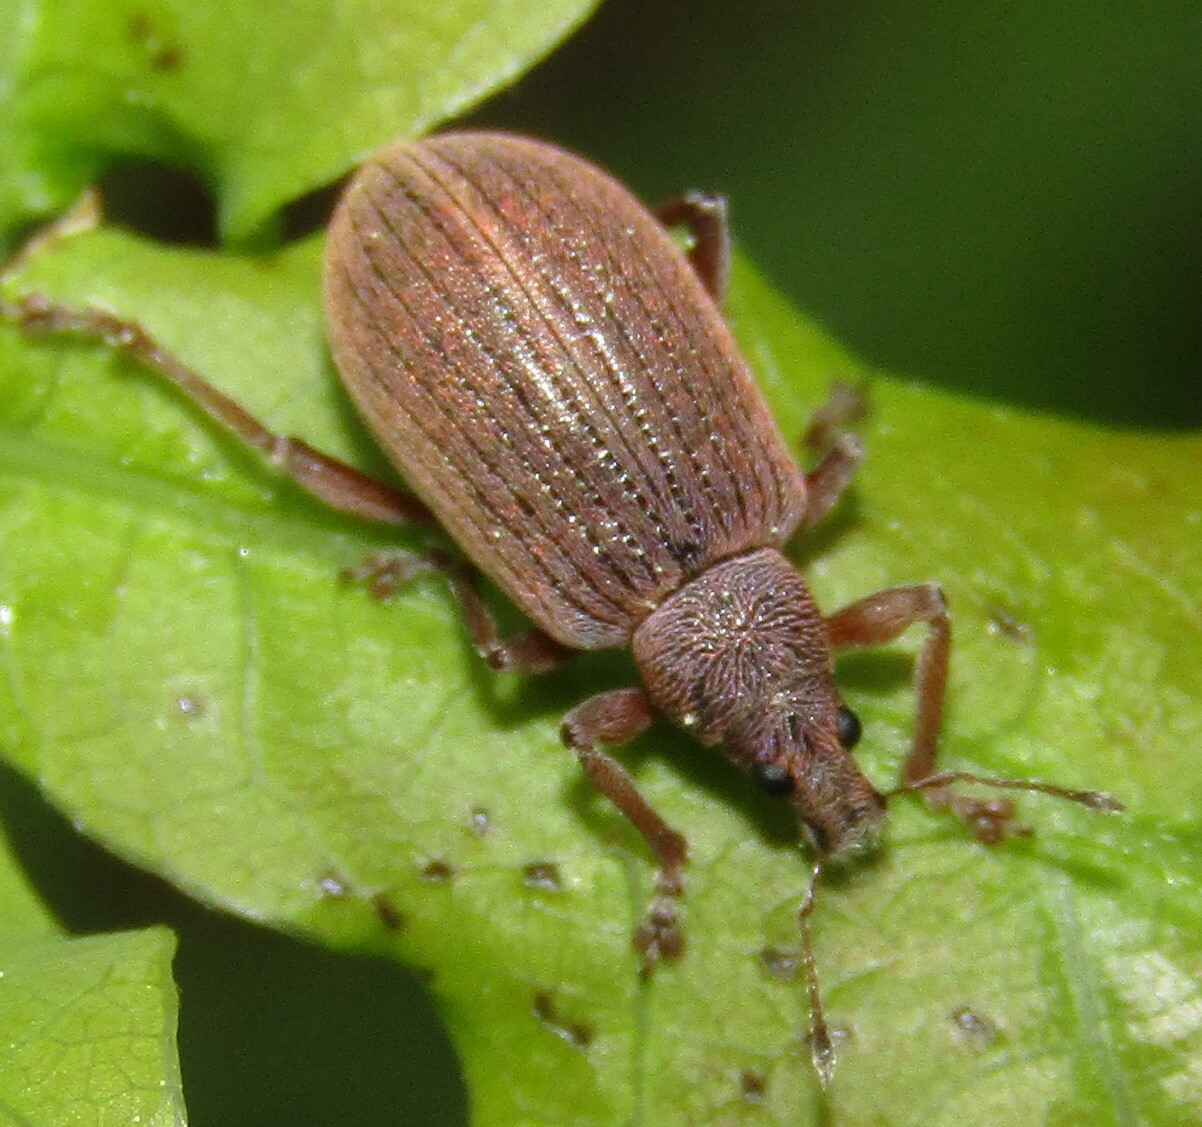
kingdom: Animalia
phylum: Arthropoda
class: Insecta
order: Coleoptera
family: Curculionidae
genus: Polydrusus
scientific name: Polydrusus mollis
